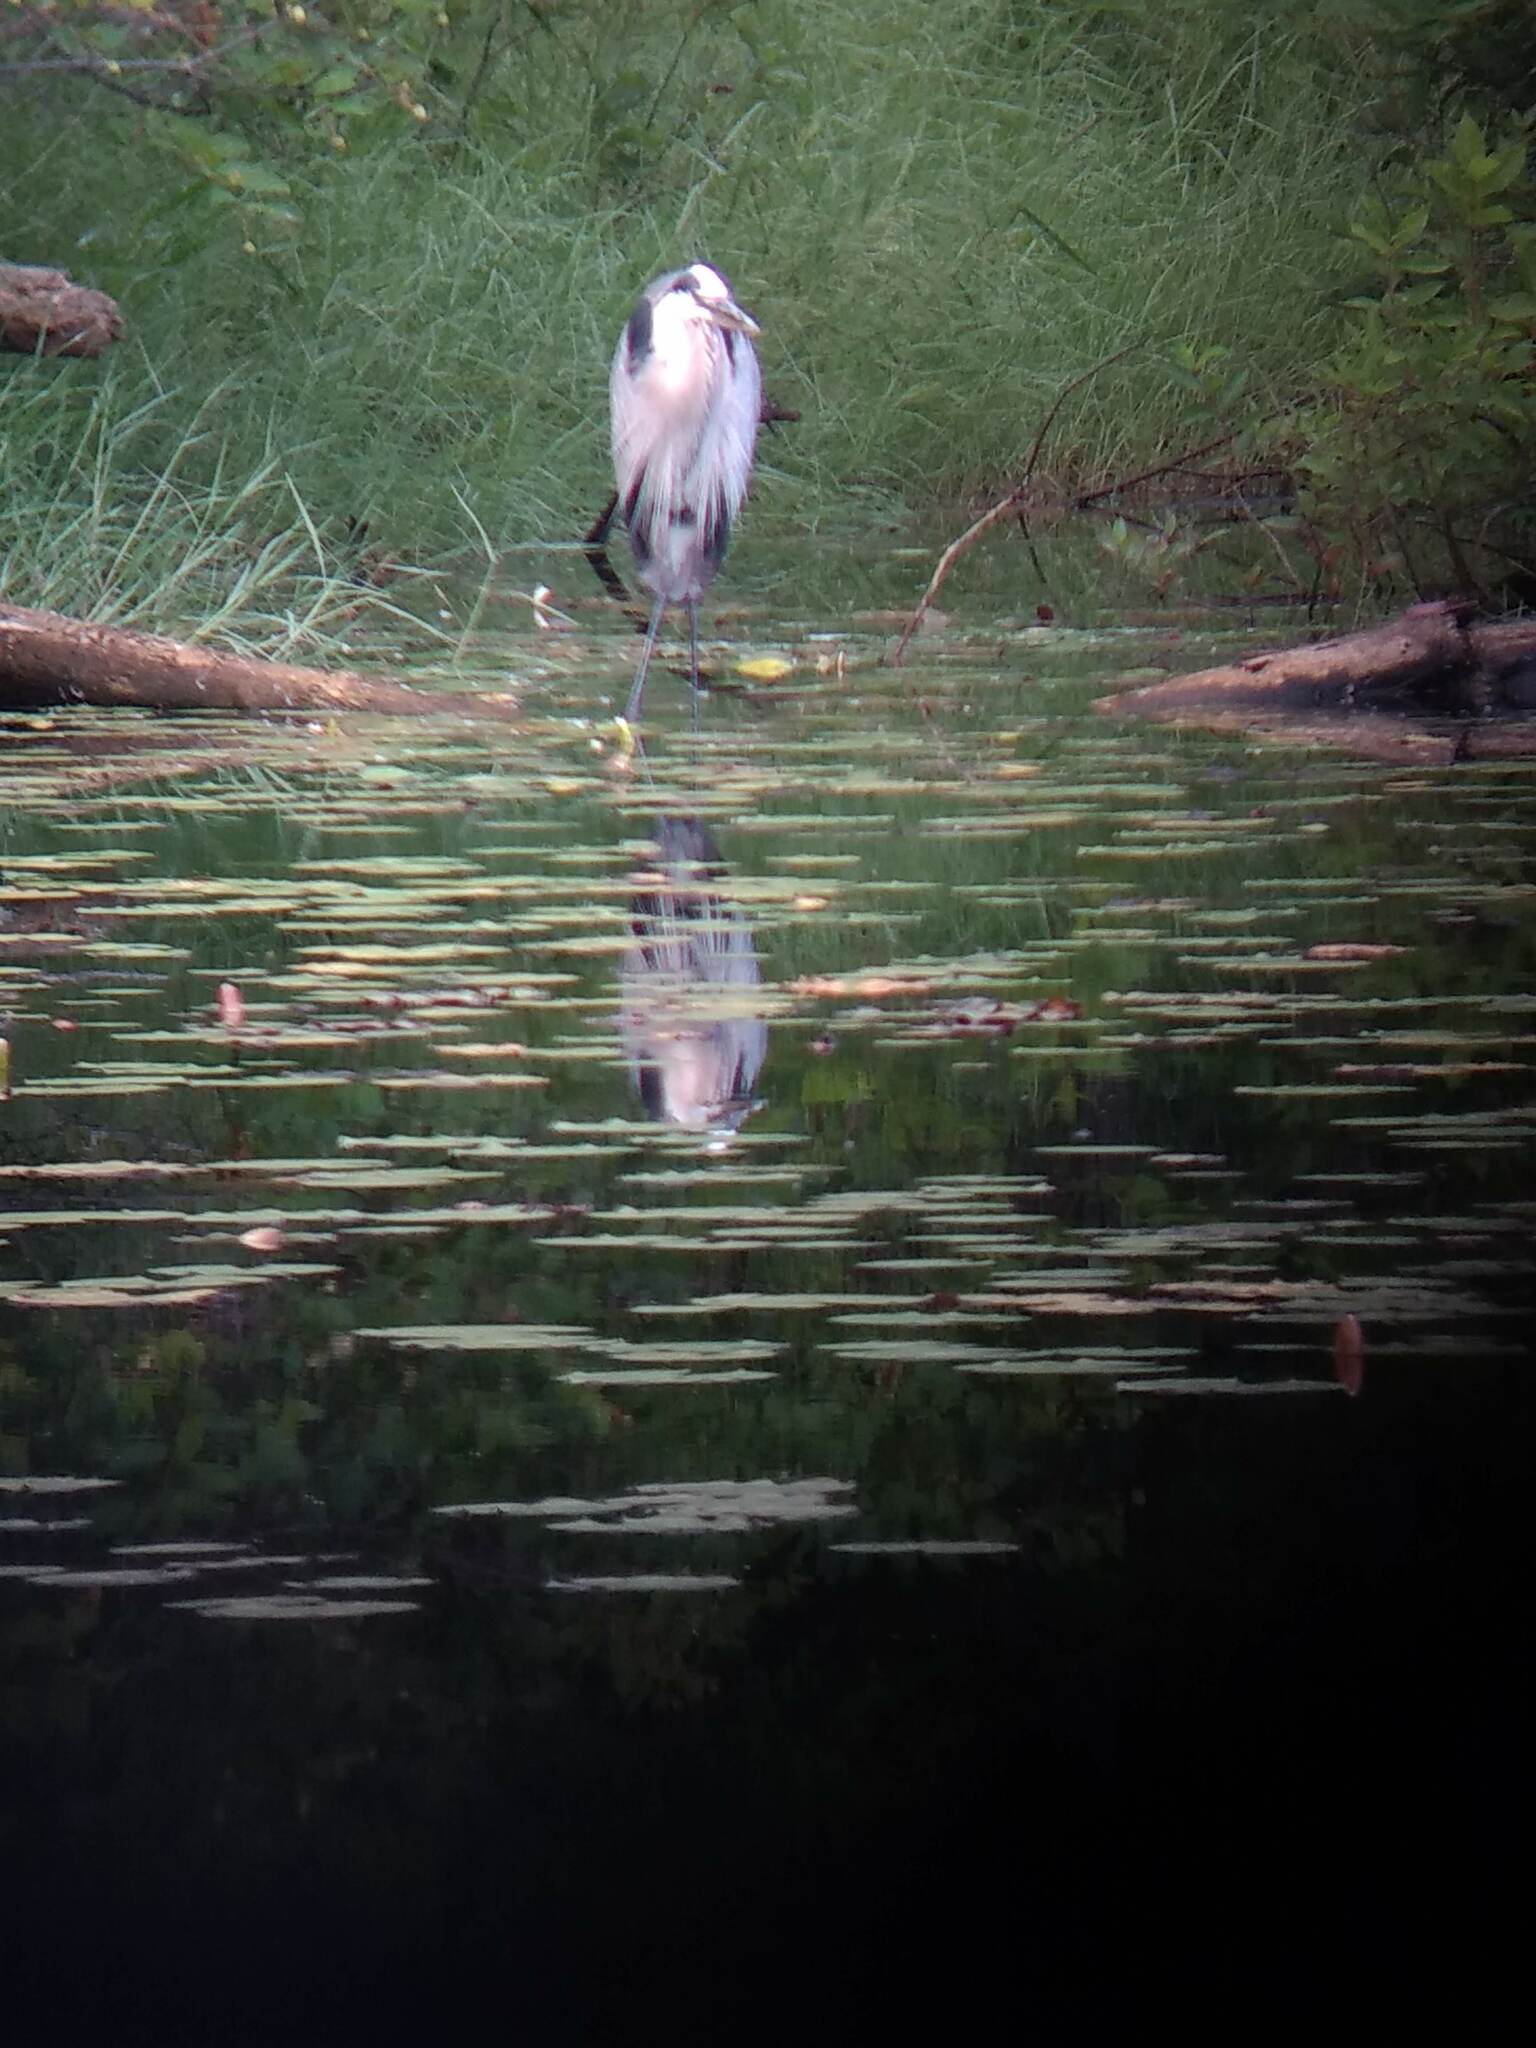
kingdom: Animalia
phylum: Chordata
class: Aves
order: Pelecaniformes
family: Ardeidae
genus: Ardea
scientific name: Ardea herodias
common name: Great blue heron
